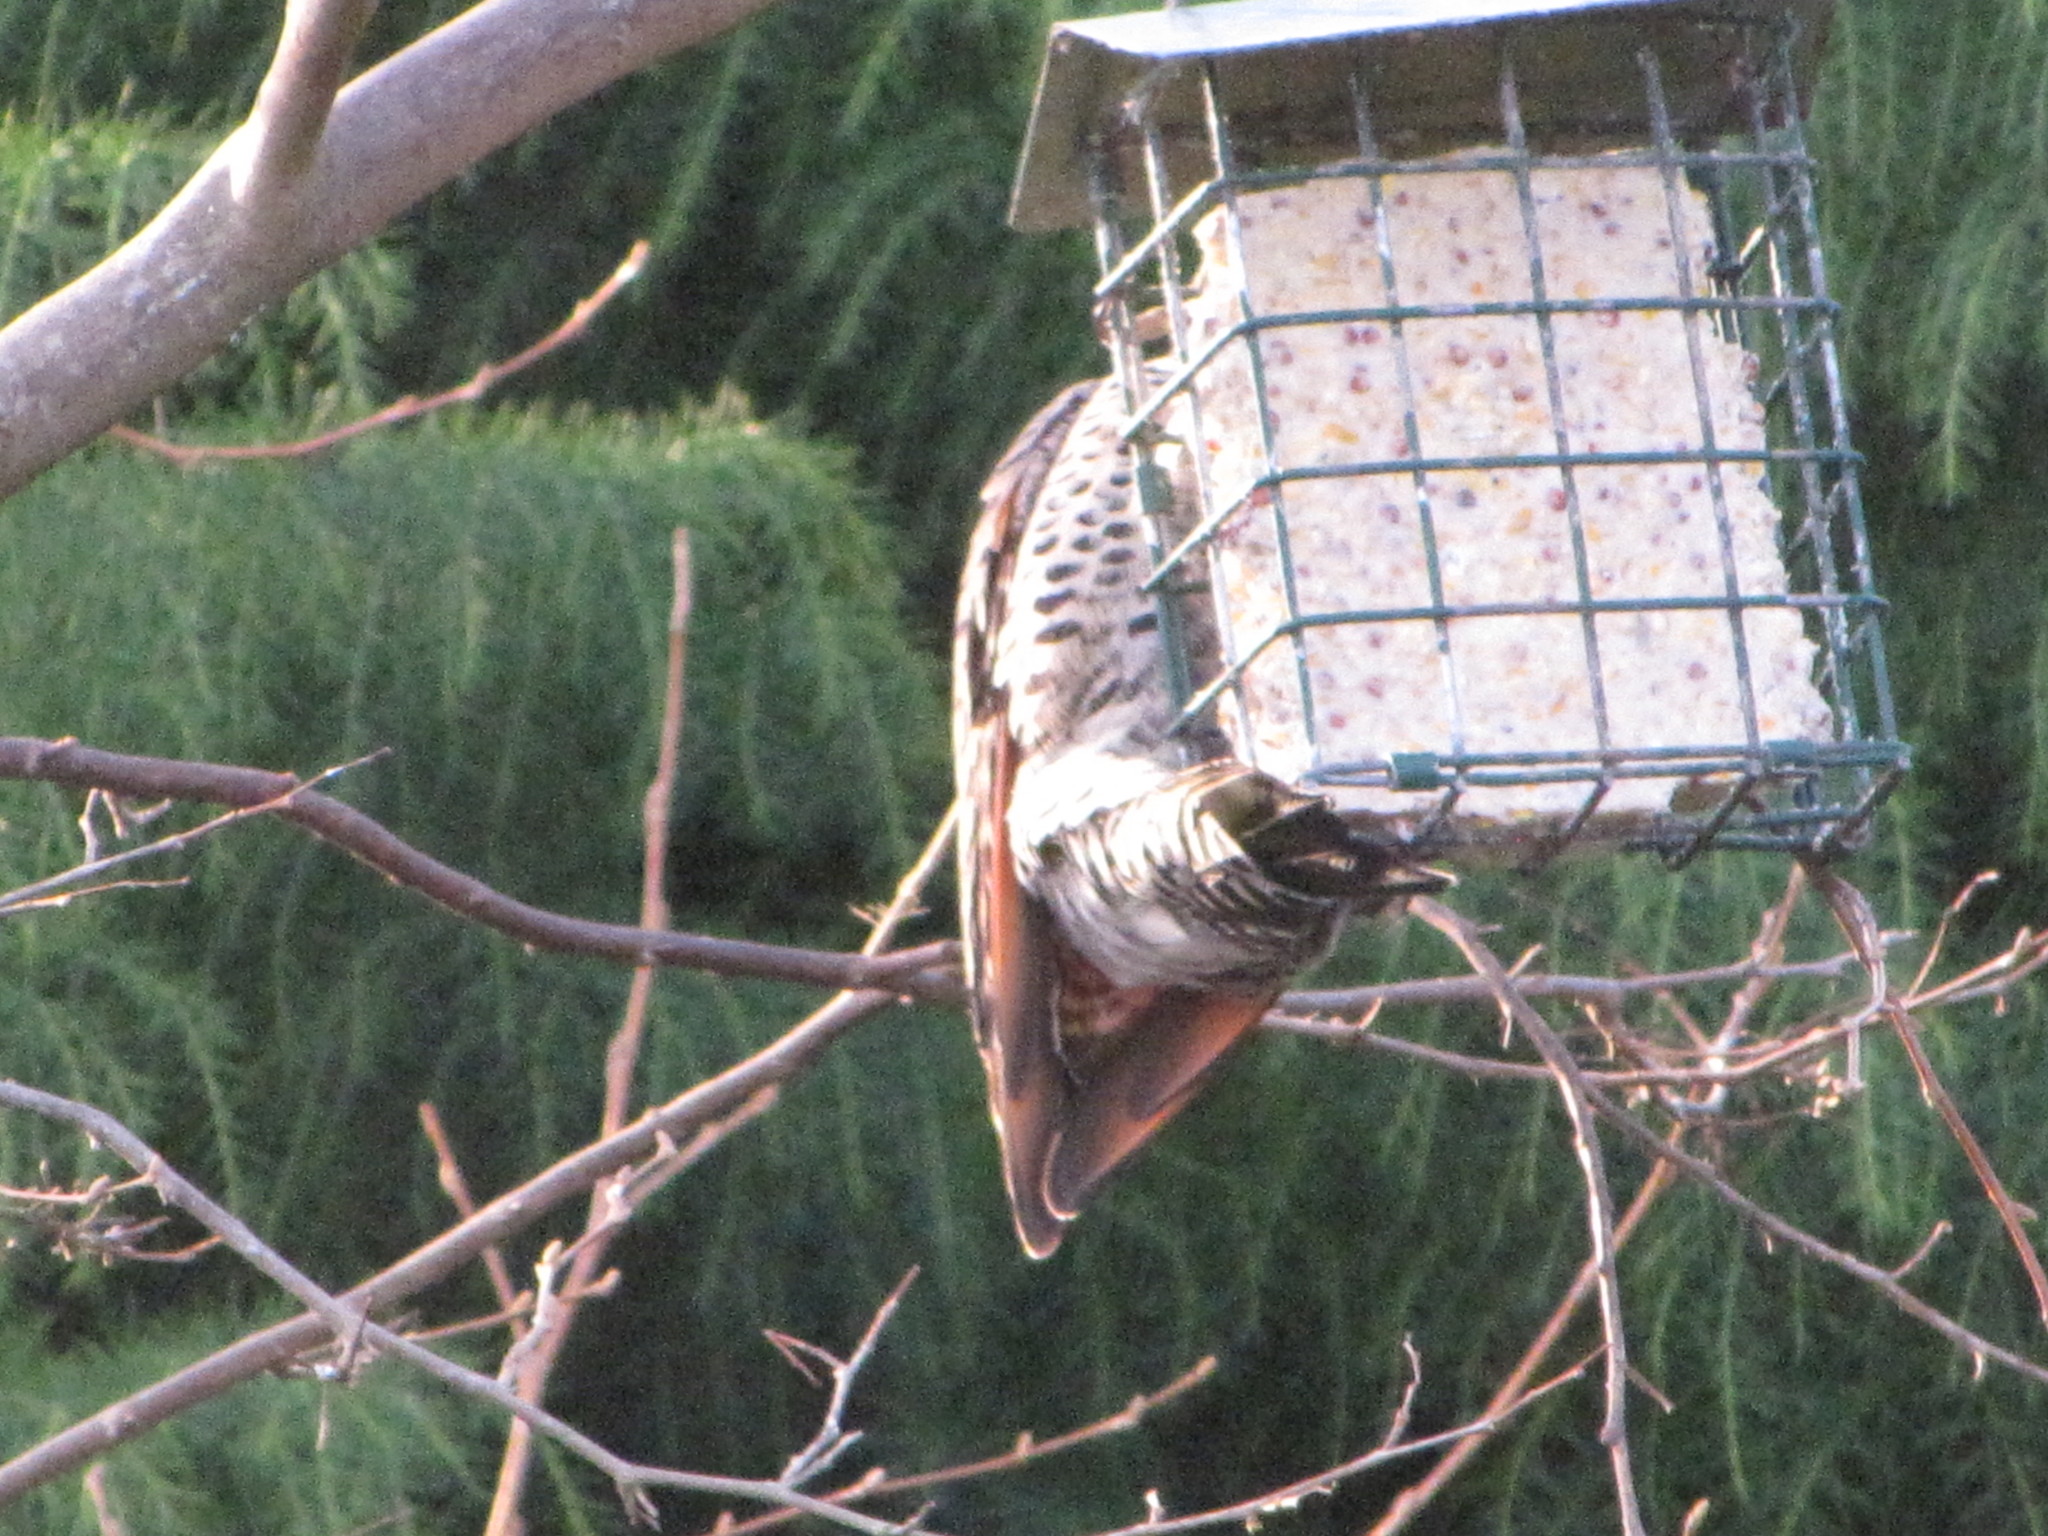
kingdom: Animalia
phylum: Chordata
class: Aves
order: Piciformes
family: Picidae
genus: Colaptes
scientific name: Colaptes auratus
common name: Northern flicker
